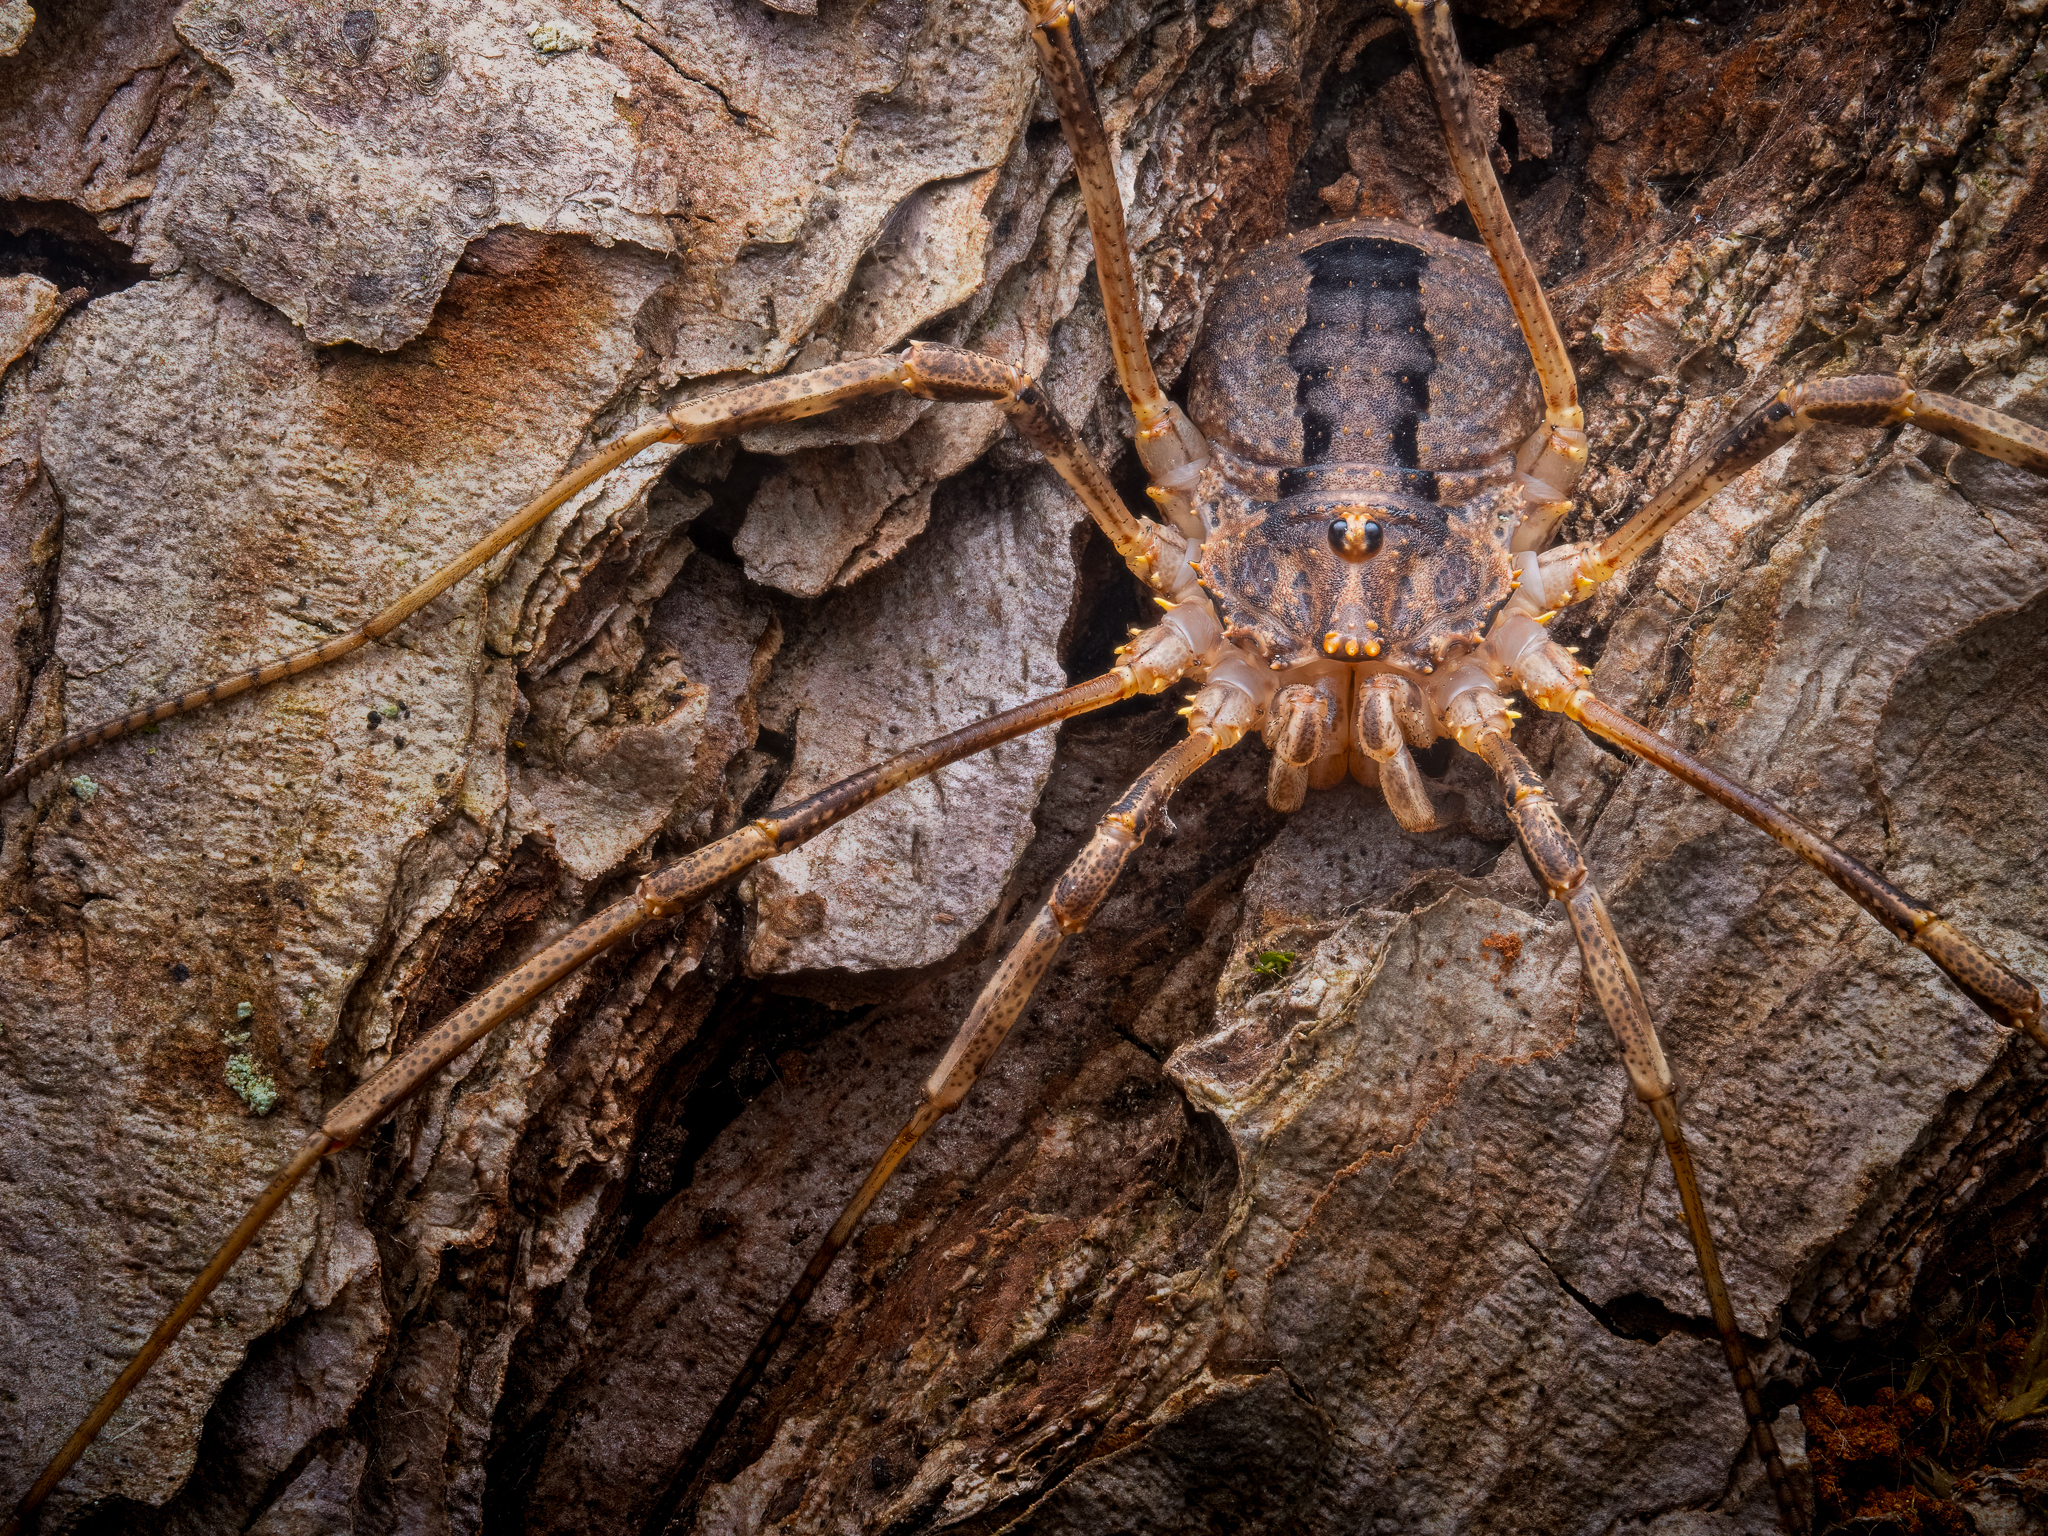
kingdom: Animalia
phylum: Arthropoda
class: Arachnida
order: Opiliones
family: Phalangiidae
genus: Odiellus
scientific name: Odiellus spinosus
